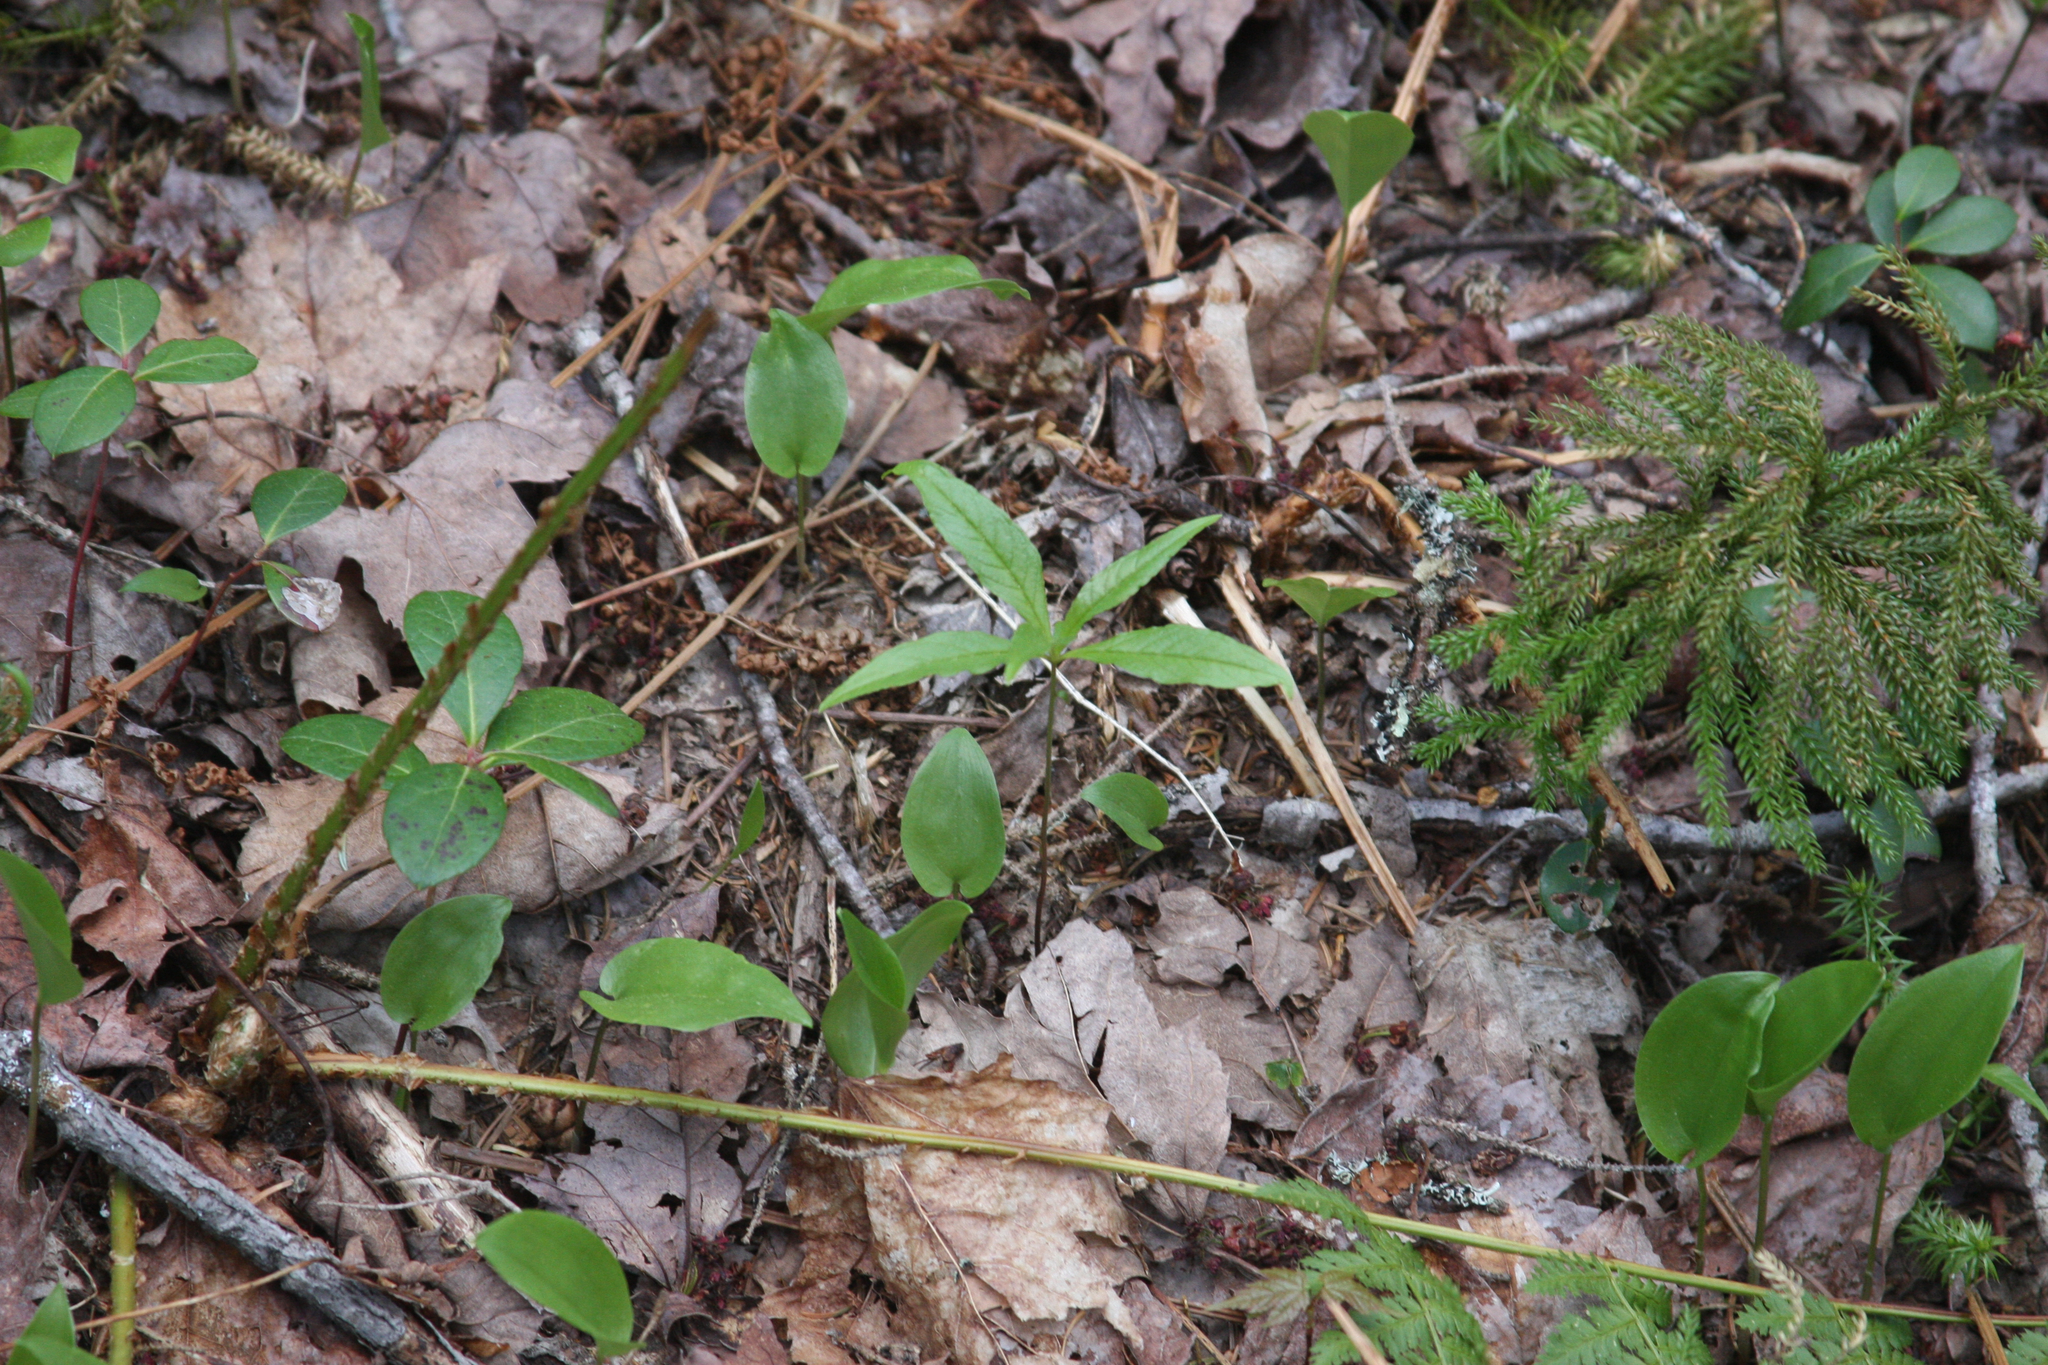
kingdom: Plantae
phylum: Tracheophyta
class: Liliopsida
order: Asparagales
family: Asparagaceae
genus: Maianthemum
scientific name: Maianthemum canadense
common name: False lily-of-the-valley
